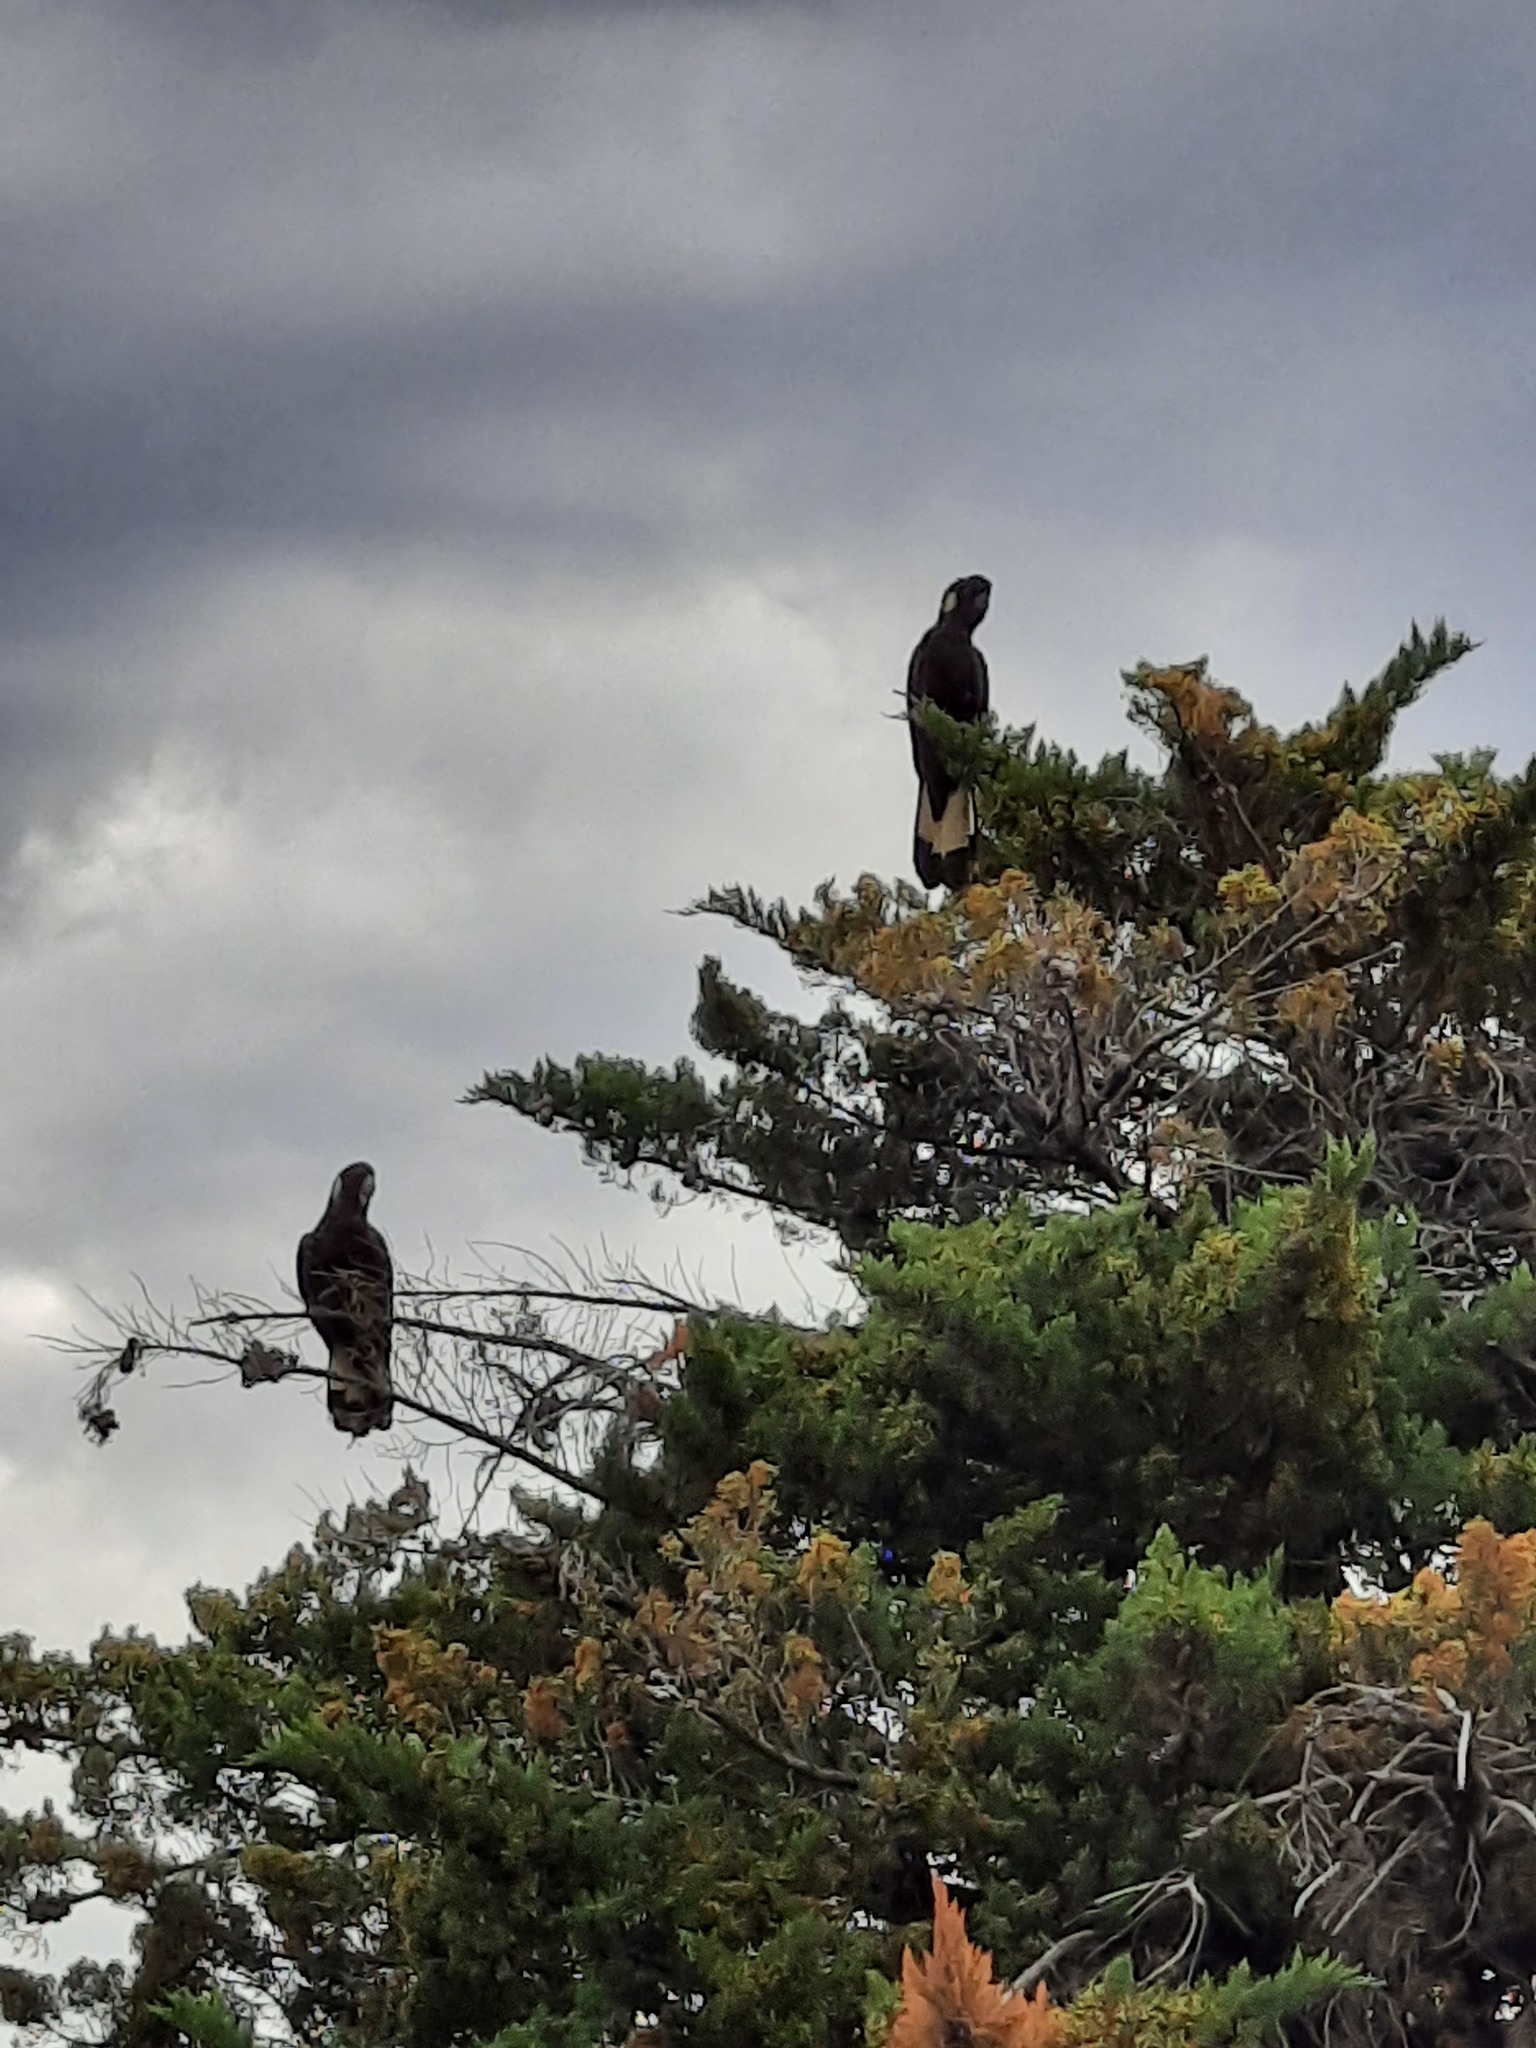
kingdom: Animalia
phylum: Chordata
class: Aves
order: Psittaciformes
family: Cacatuidae
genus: Zanda
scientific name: Zanda funerea
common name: Yellow-tailed black-cockatoo
